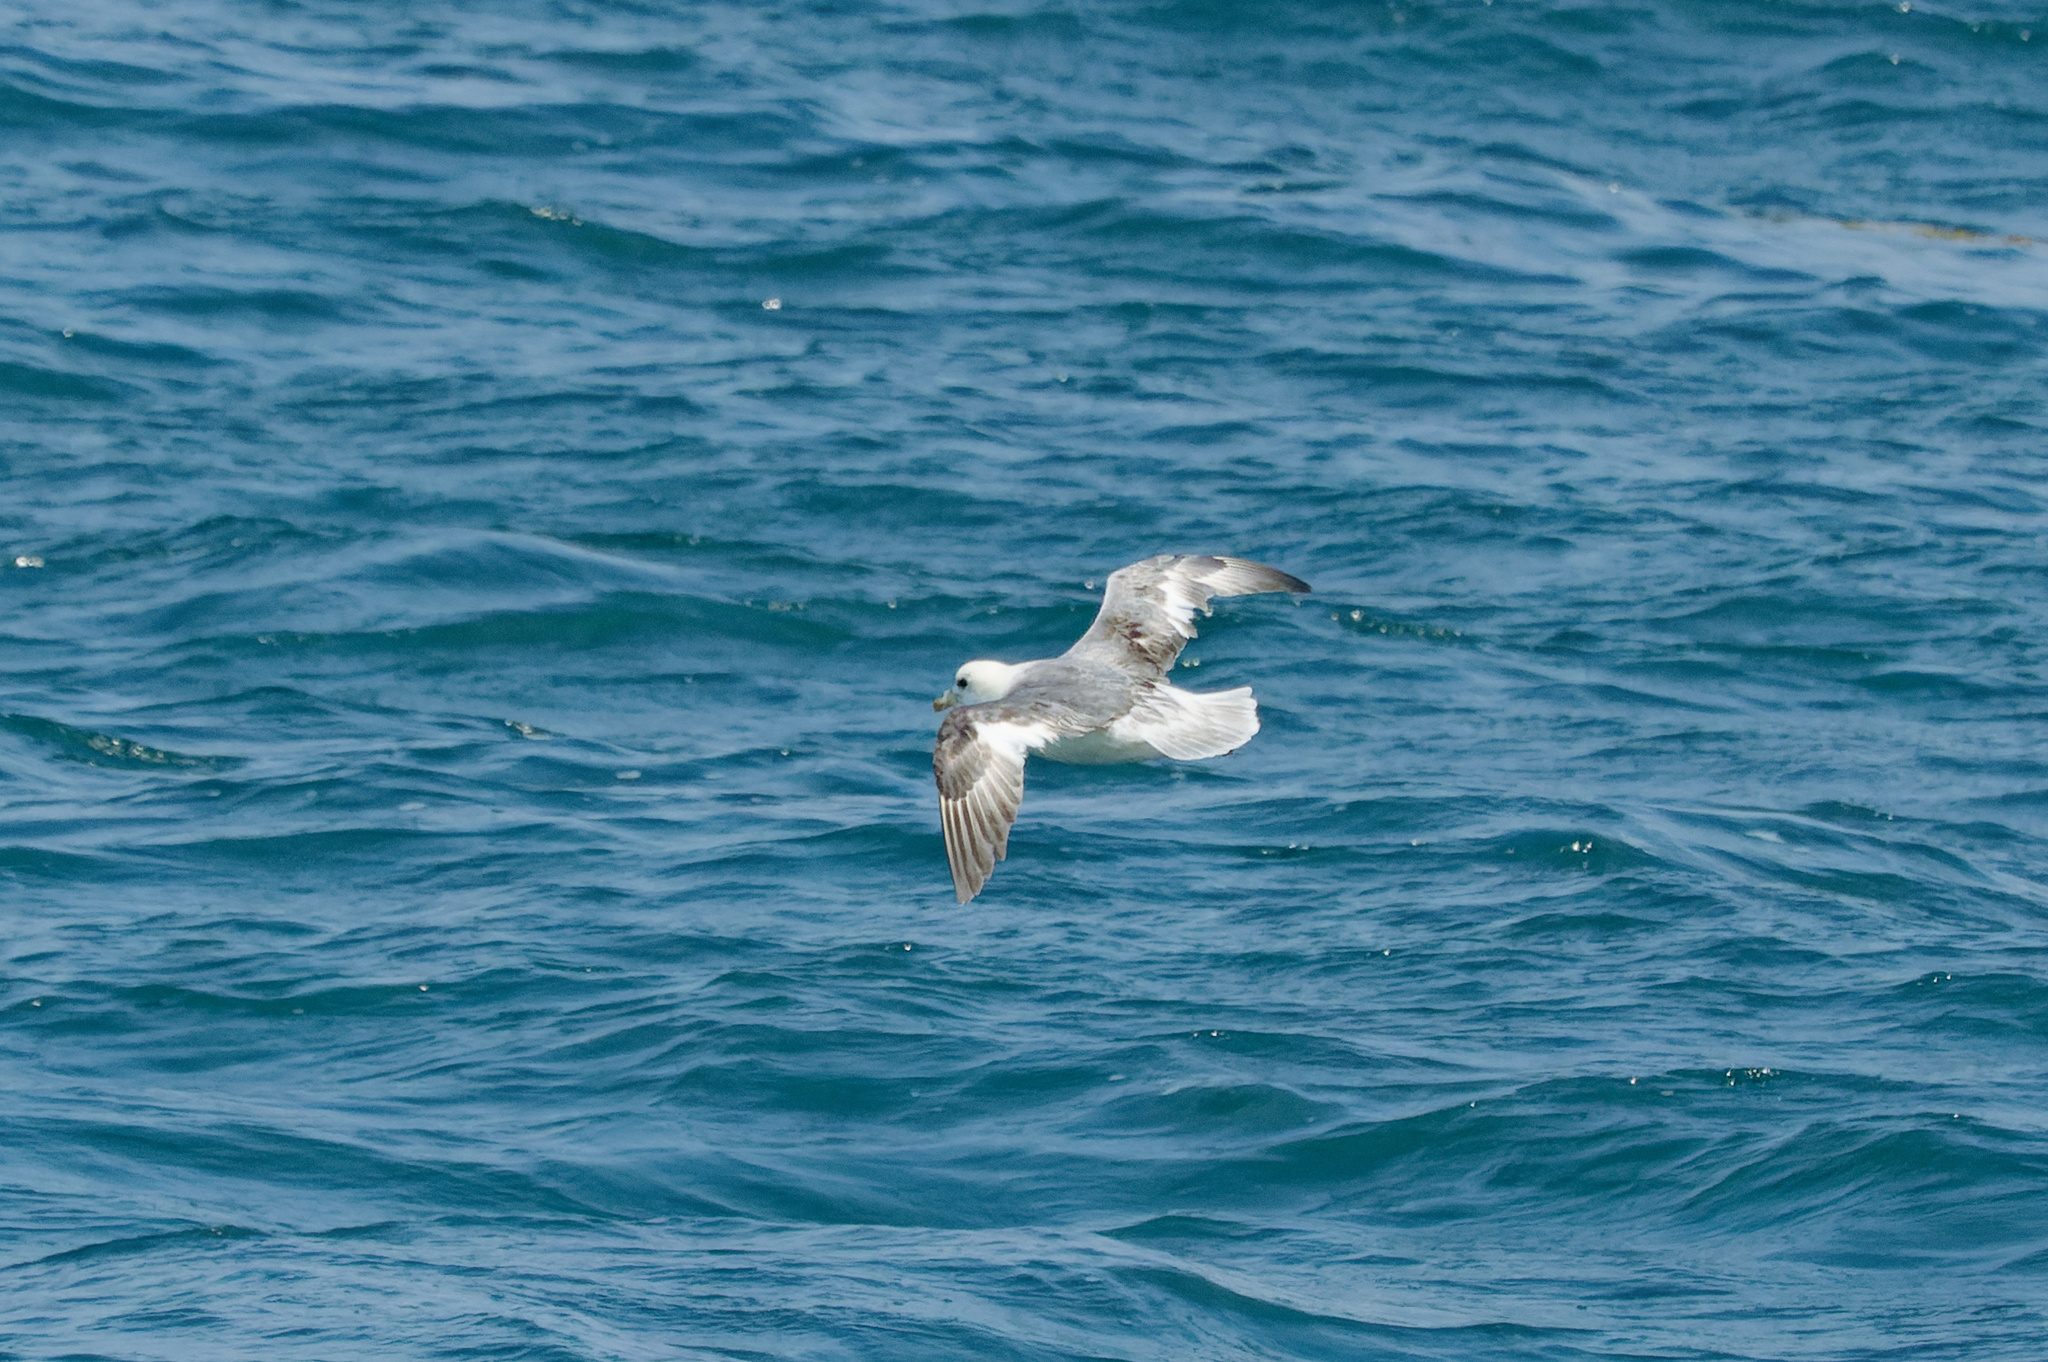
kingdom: Animalia
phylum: Chordata
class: Aves
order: Procellariiformes
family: Procellariidae
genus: Fulmarus
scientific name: Fulmarus glacialis
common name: Northern fulmar
